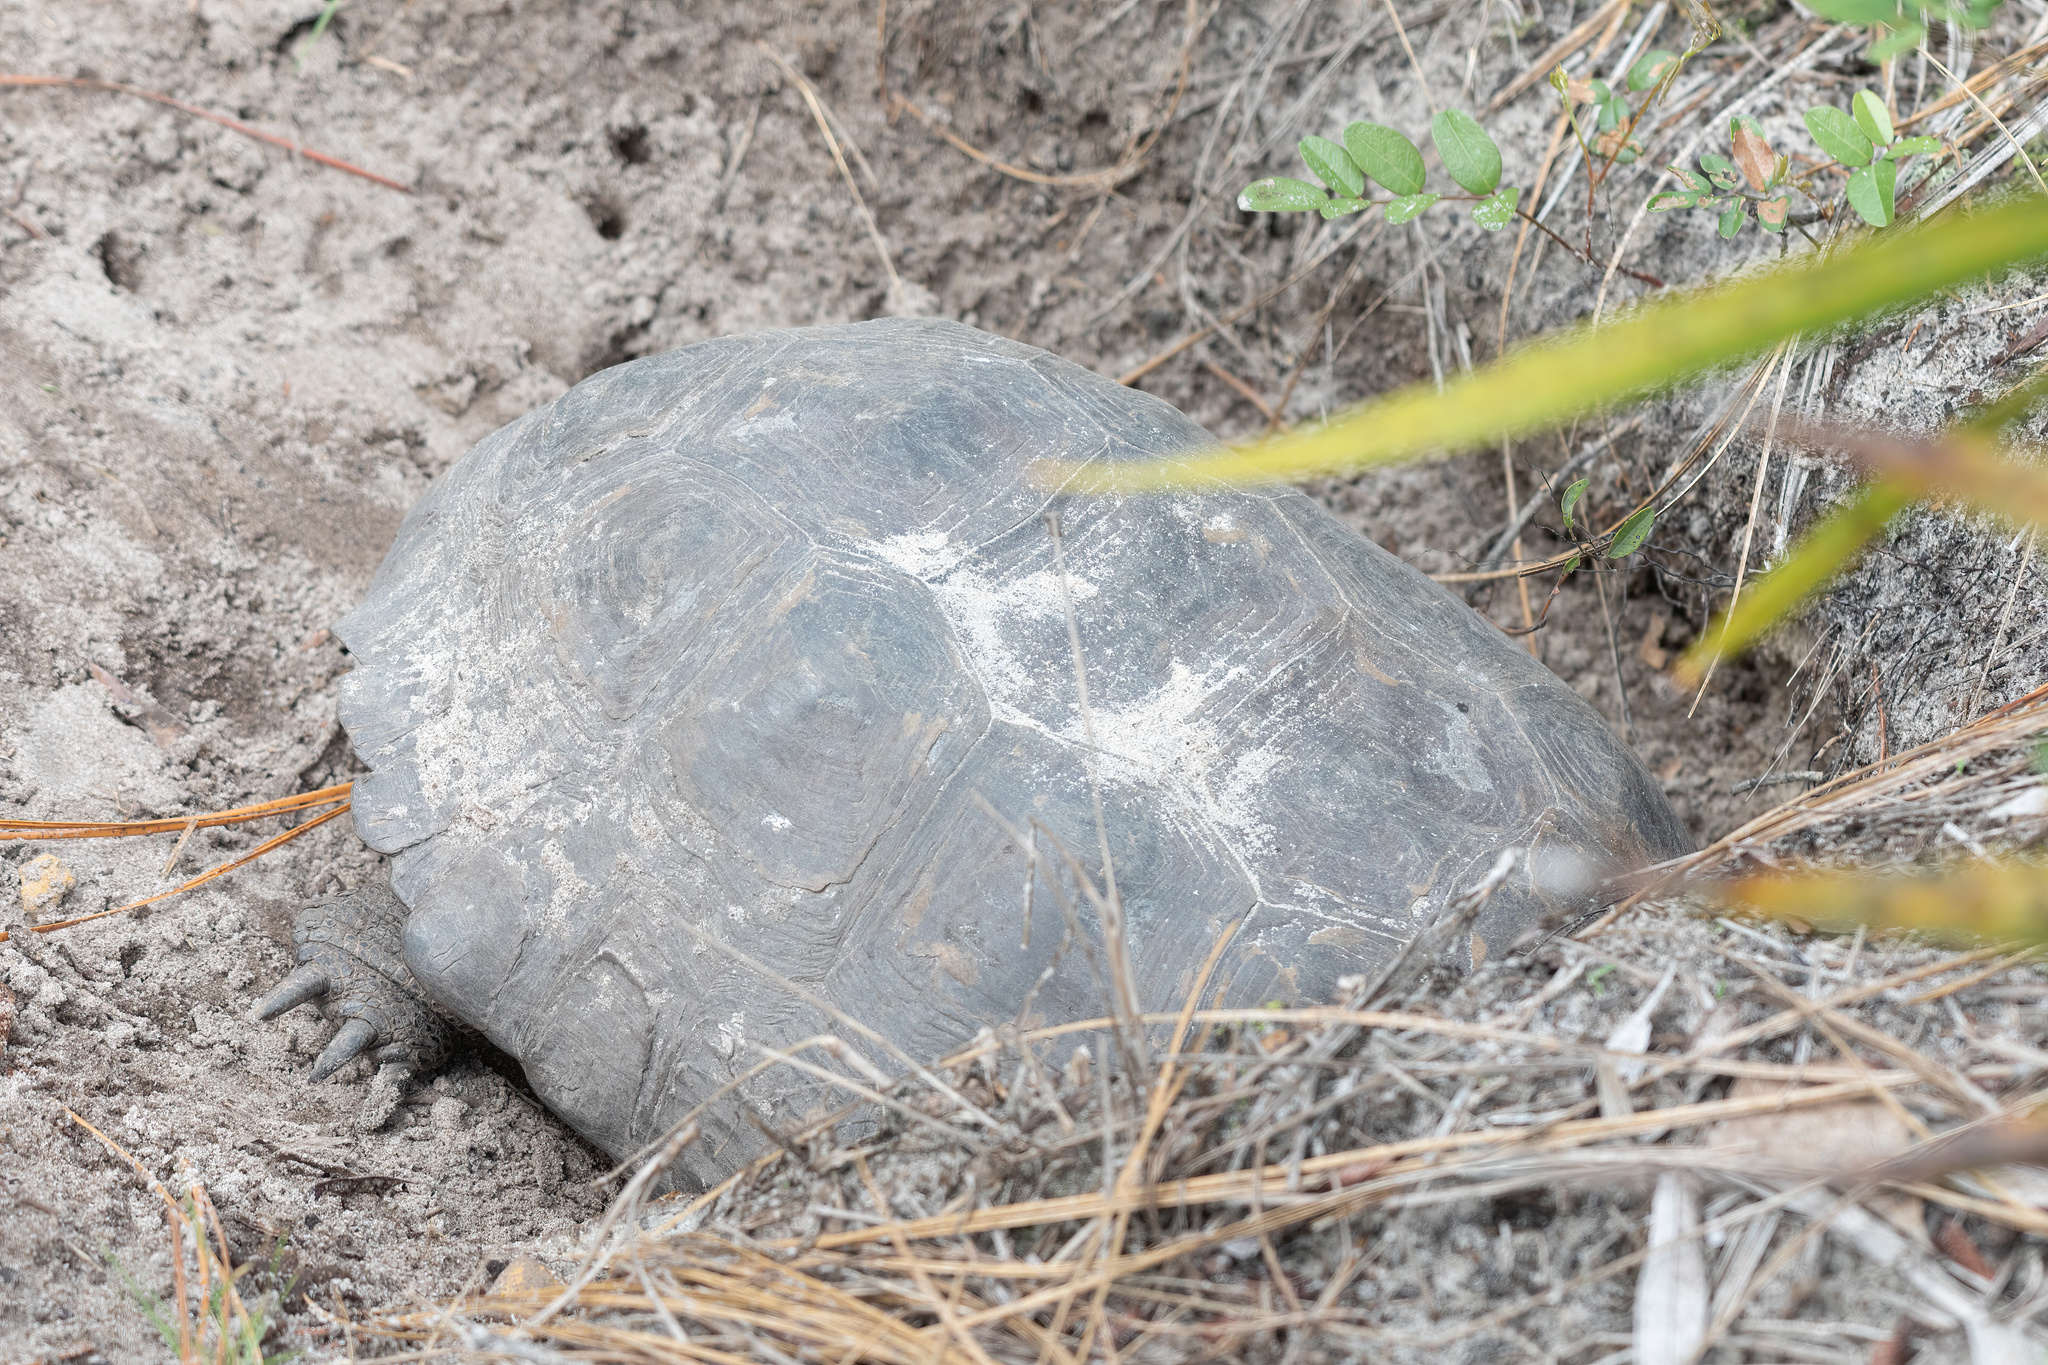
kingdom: Animalia
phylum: Chordata
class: Testudines
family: Testudinidae
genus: Gopherus
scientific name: Gopherus polyphemus
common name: Florida gopher tortoise
